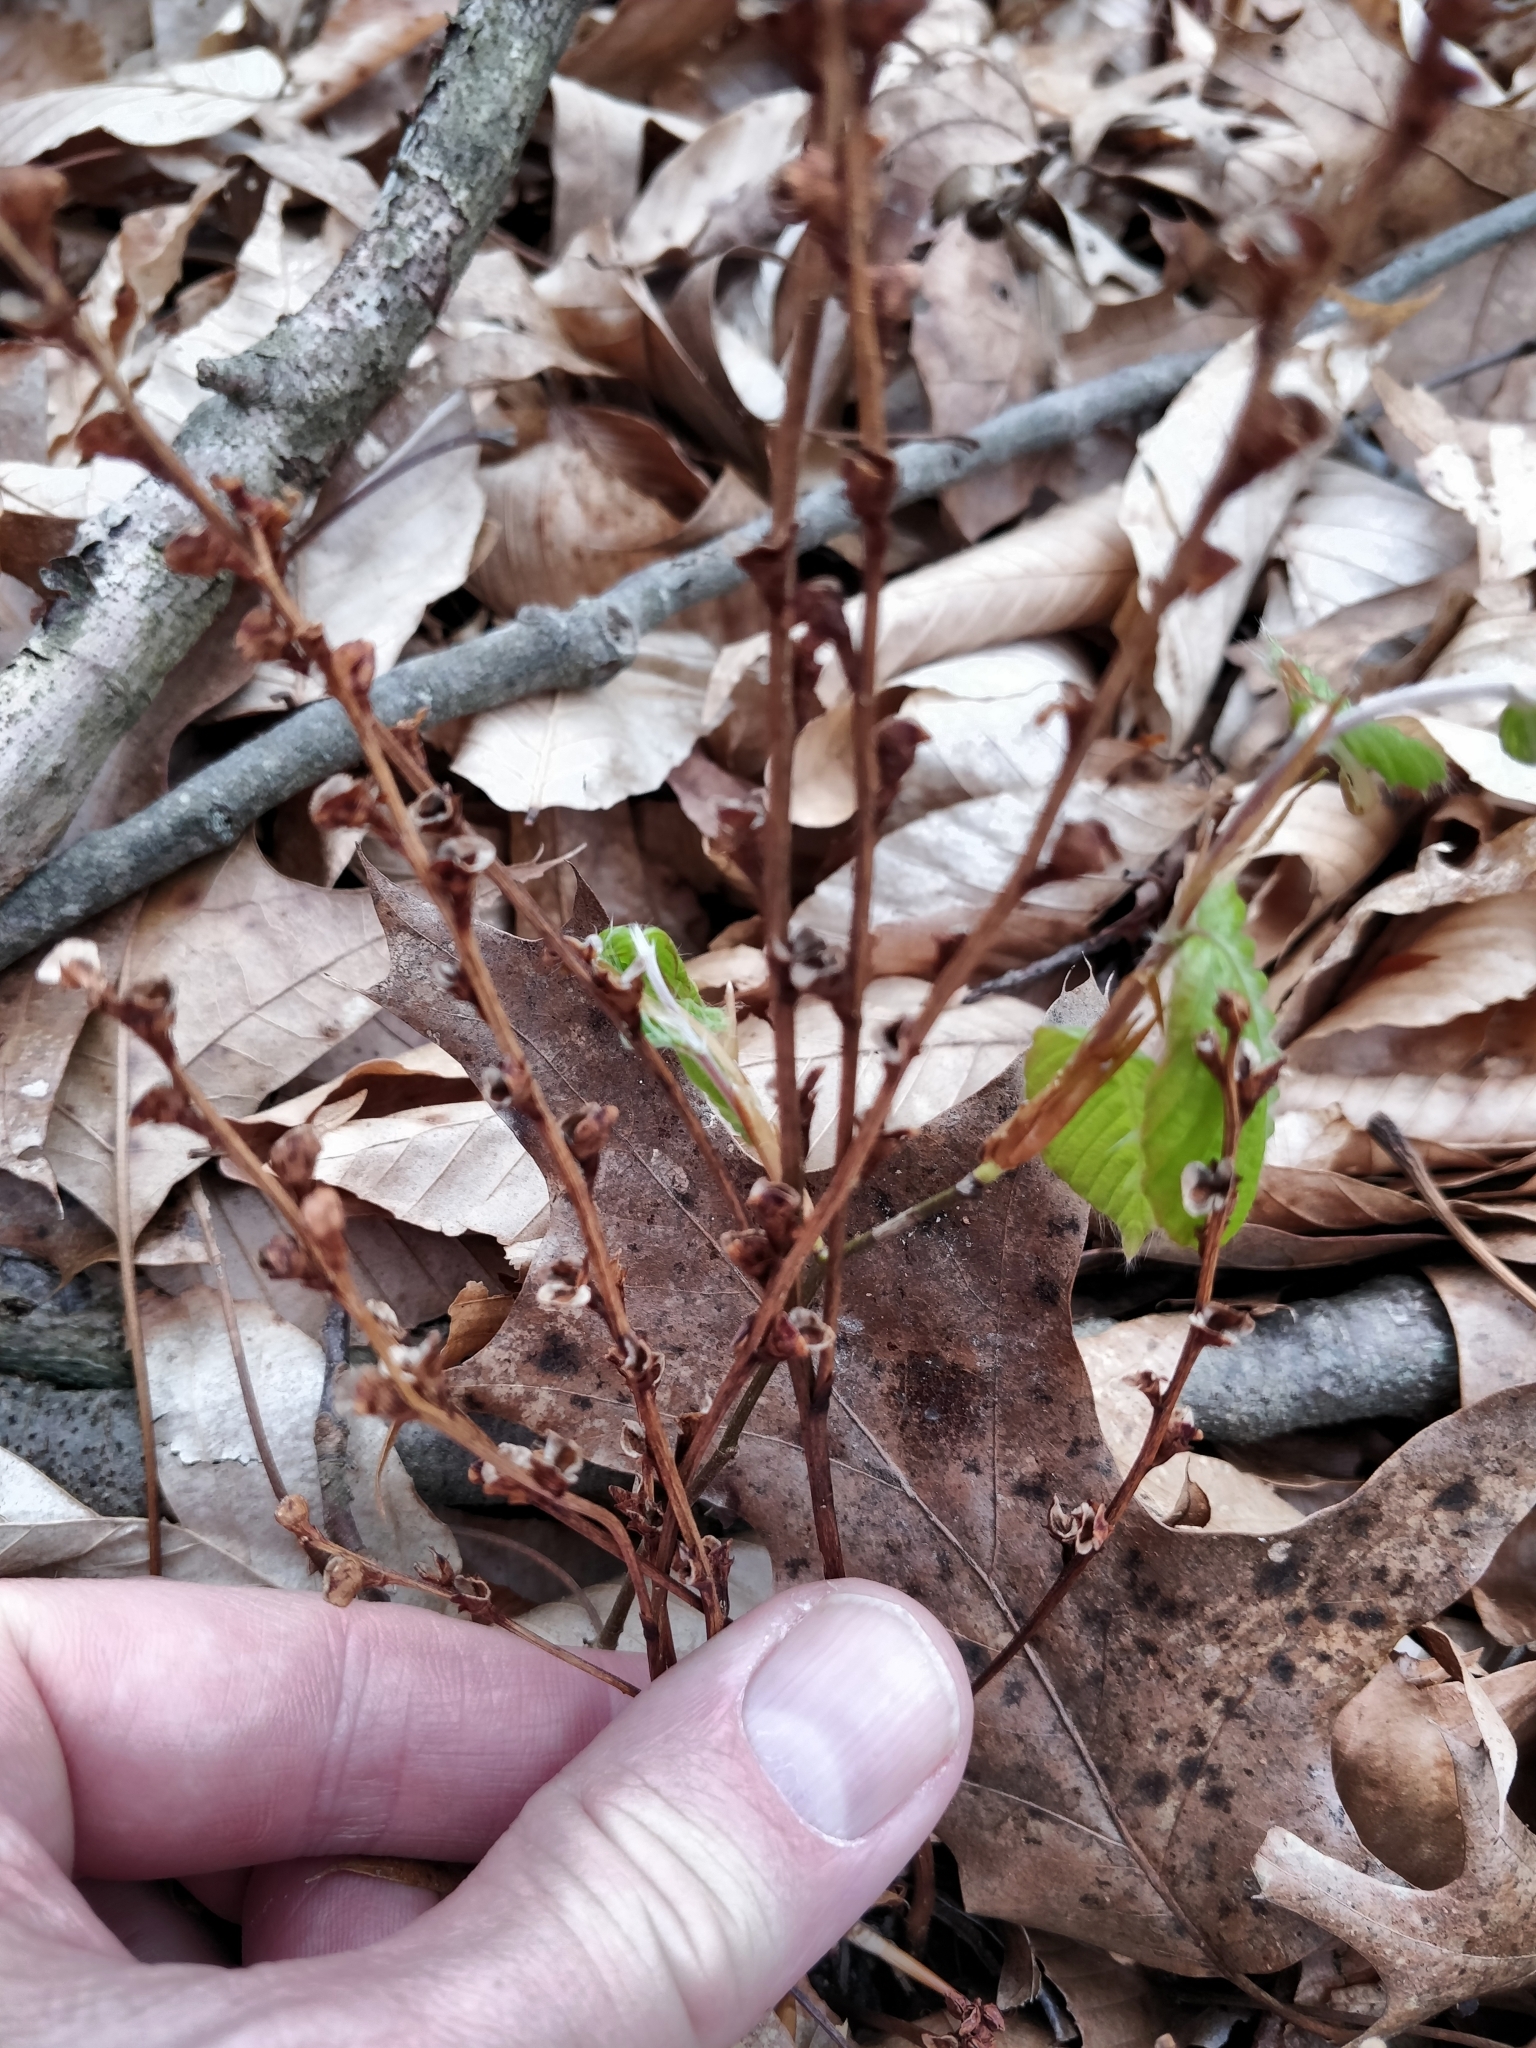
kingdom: Plantae
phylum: Tracheophyta
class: Magnoliopsida
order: Lamiales
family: Orobanchaceae
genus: Epifagus
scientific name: Epifagus virginiana
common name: Beechdrops
